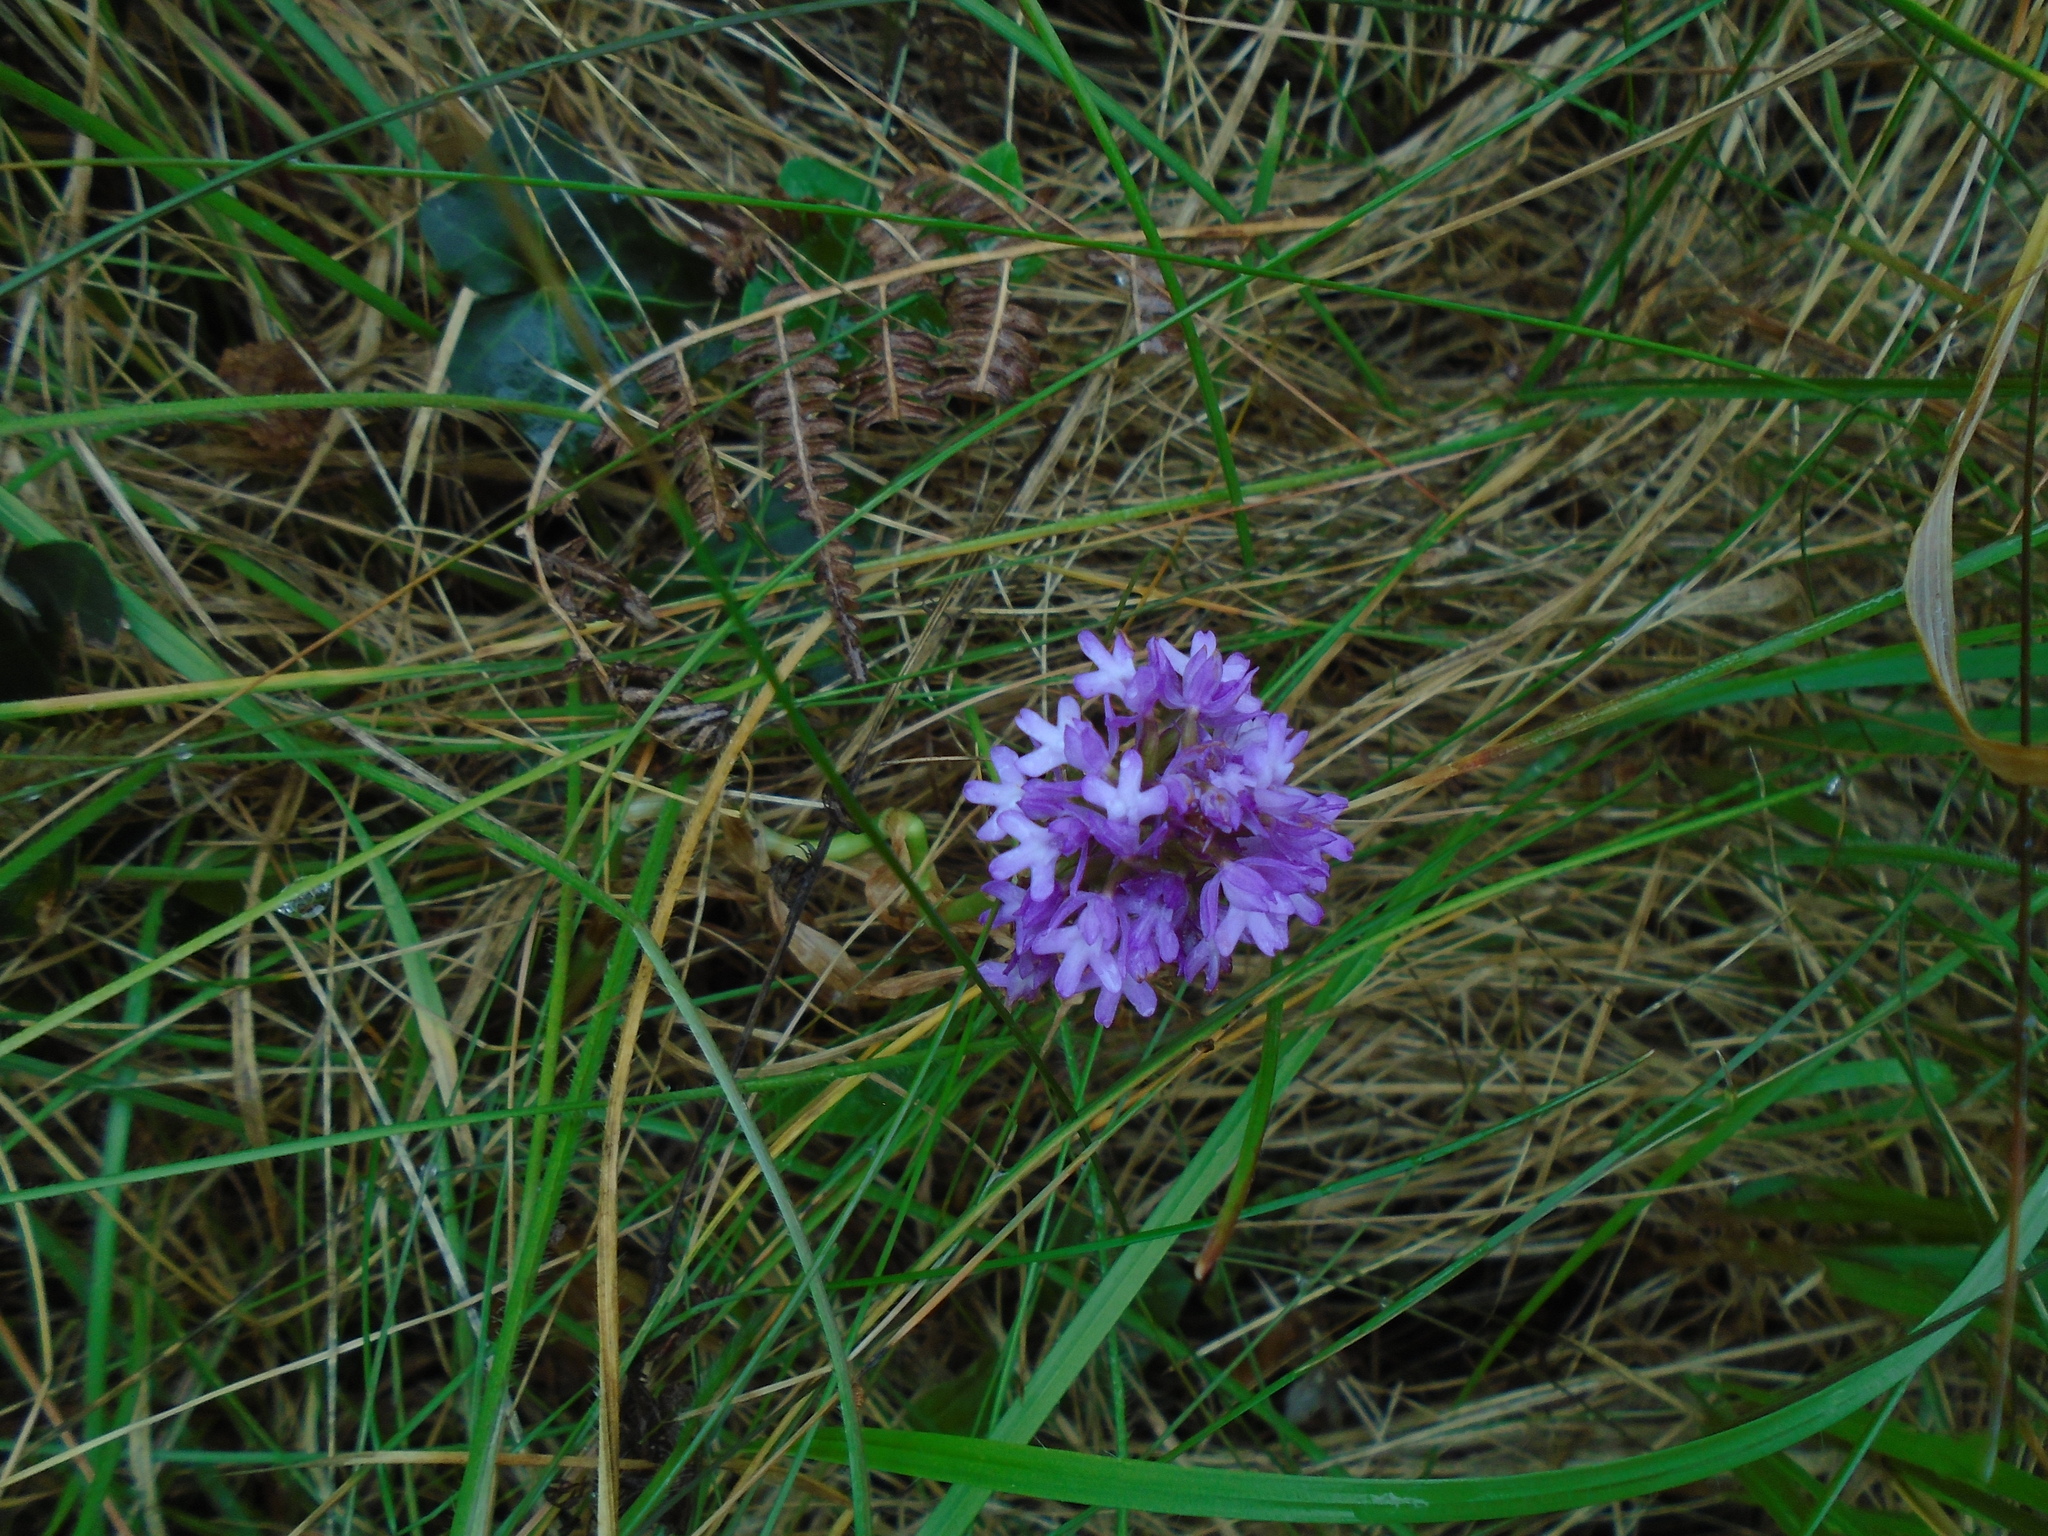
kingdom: Plantae
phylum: Tracheophyta
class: Liliopsida
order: Asparagales
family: Orchidaceae
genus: Anacamptis
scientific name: Anacamptis pyramidalis
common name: Pyramidal orchid
